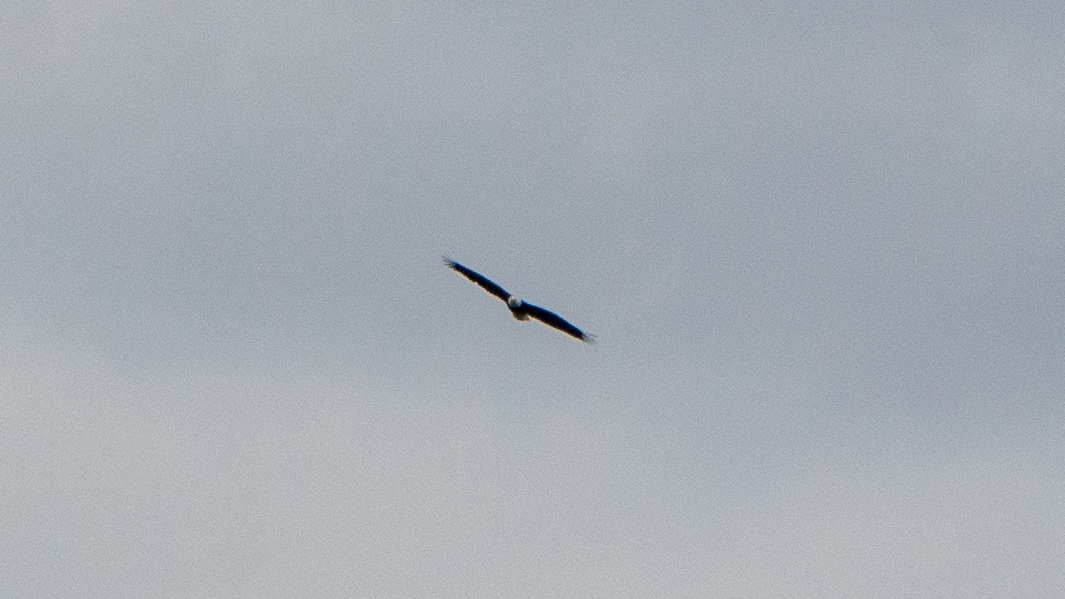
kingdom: Animalia
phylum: Chordata
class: Aves
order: Accipitriformes
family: Accipitridae
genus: Haliaeetus
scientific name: Haliaeetus leucocephalus
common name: Bald eagle
